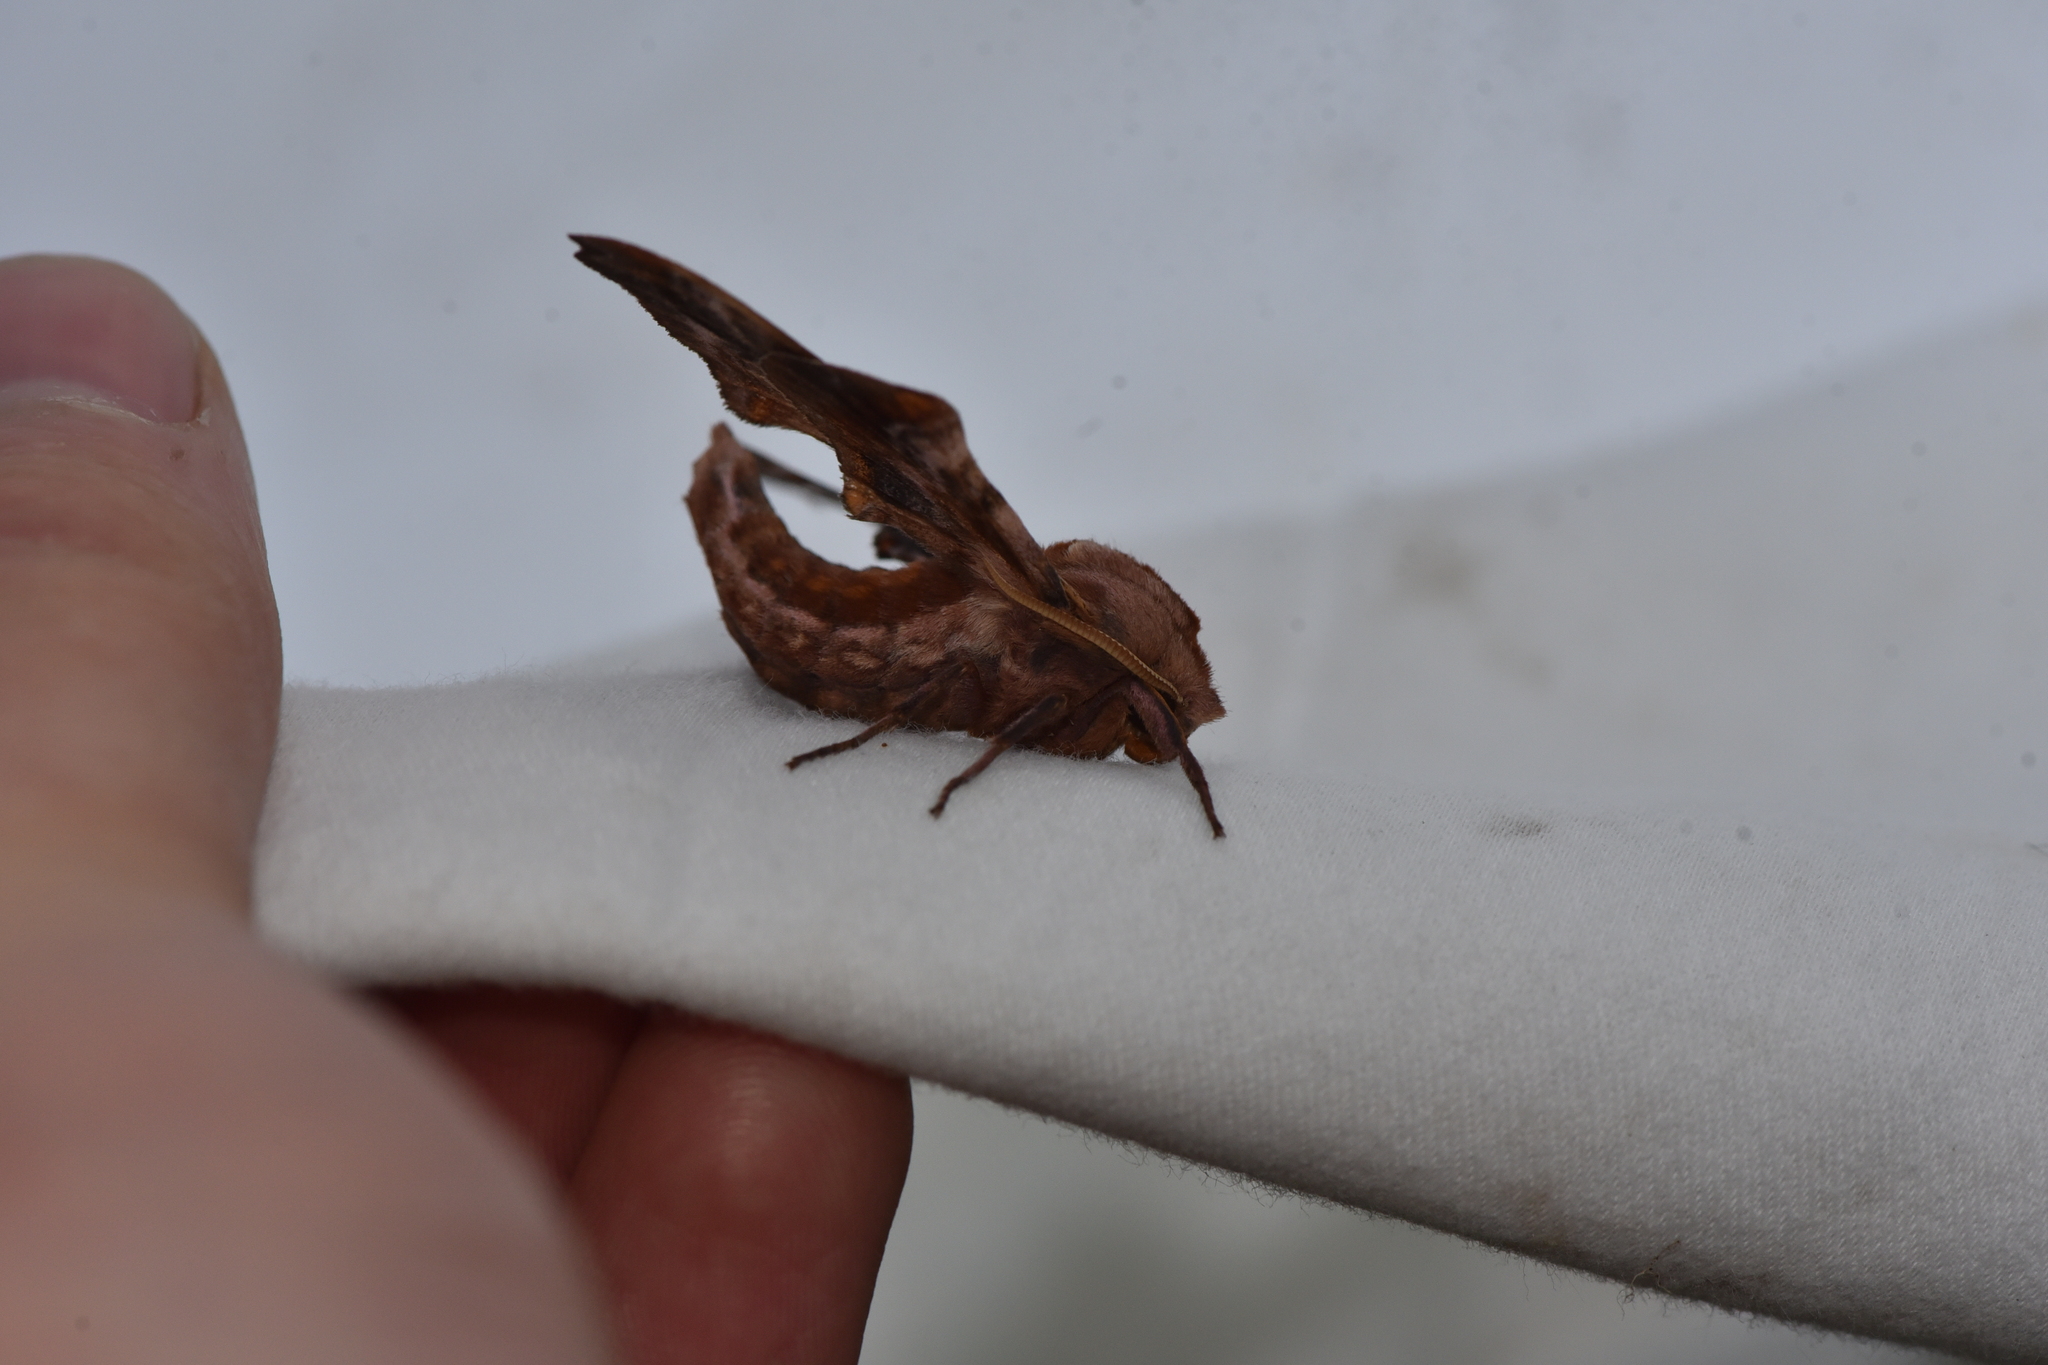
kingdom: Animalia
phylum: Arthropoda
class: Insecta
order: Lepidoptera
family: Sphingidae
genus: Paonias
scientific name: Paonias myops
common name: Small-eyed sphinx
